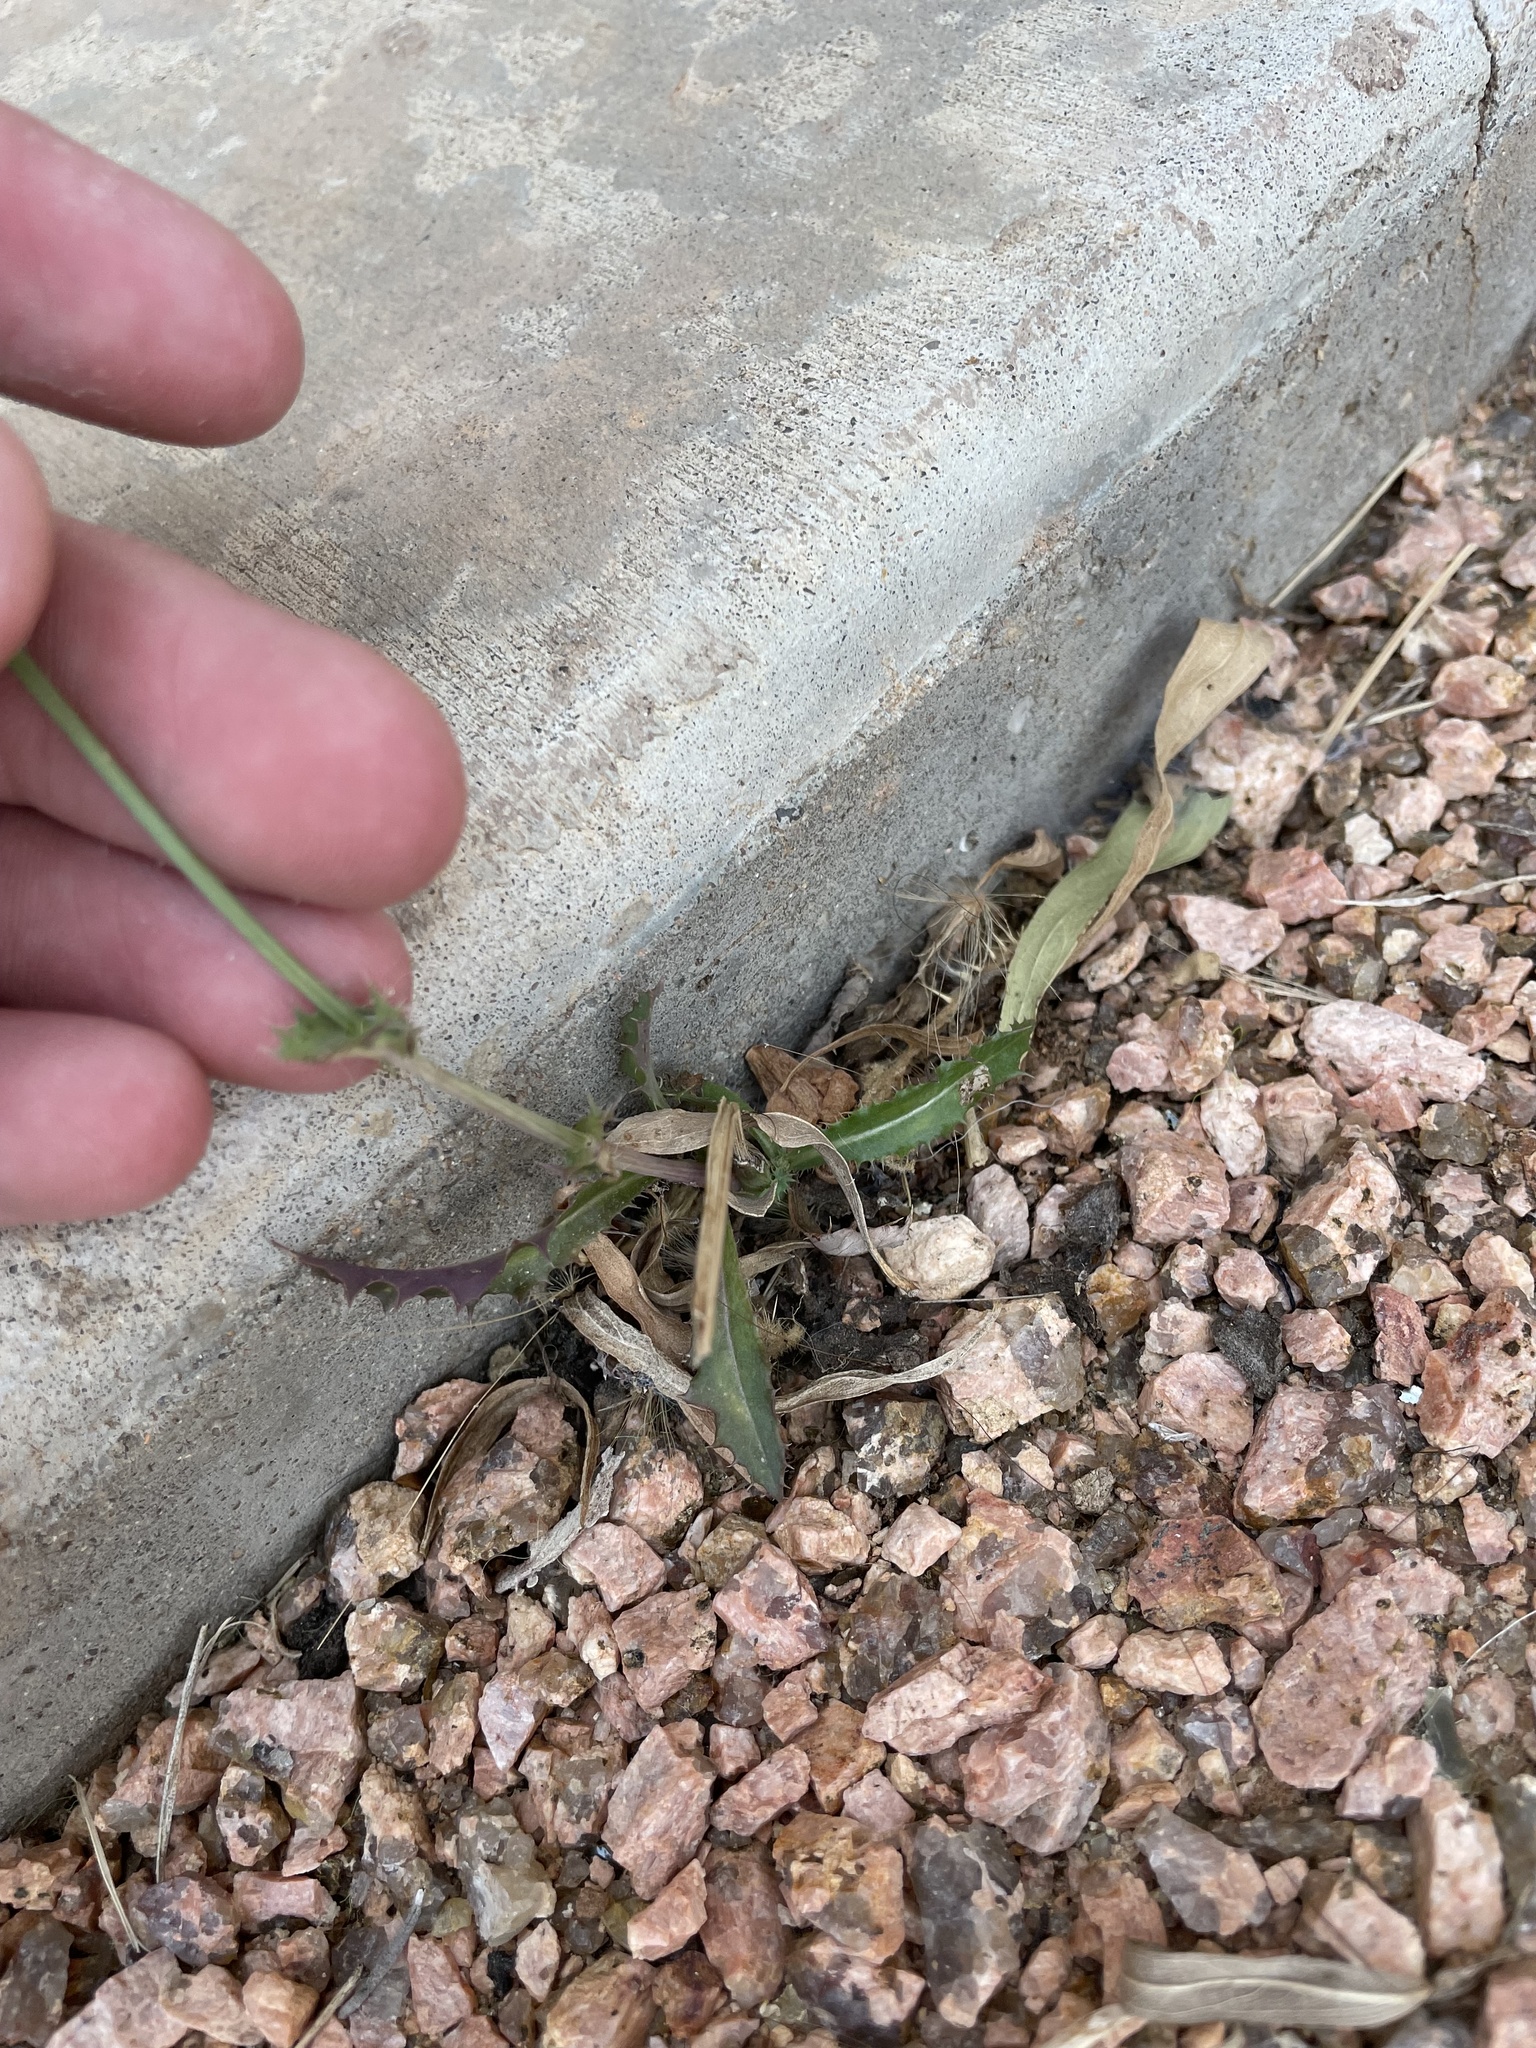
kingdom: Plantae
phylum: Tracheophyta
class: Magnoliopsida
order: Asterales
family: Asteraceae
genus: Lactuca
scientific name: Lactuca serriola
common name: Prickly lettuce
